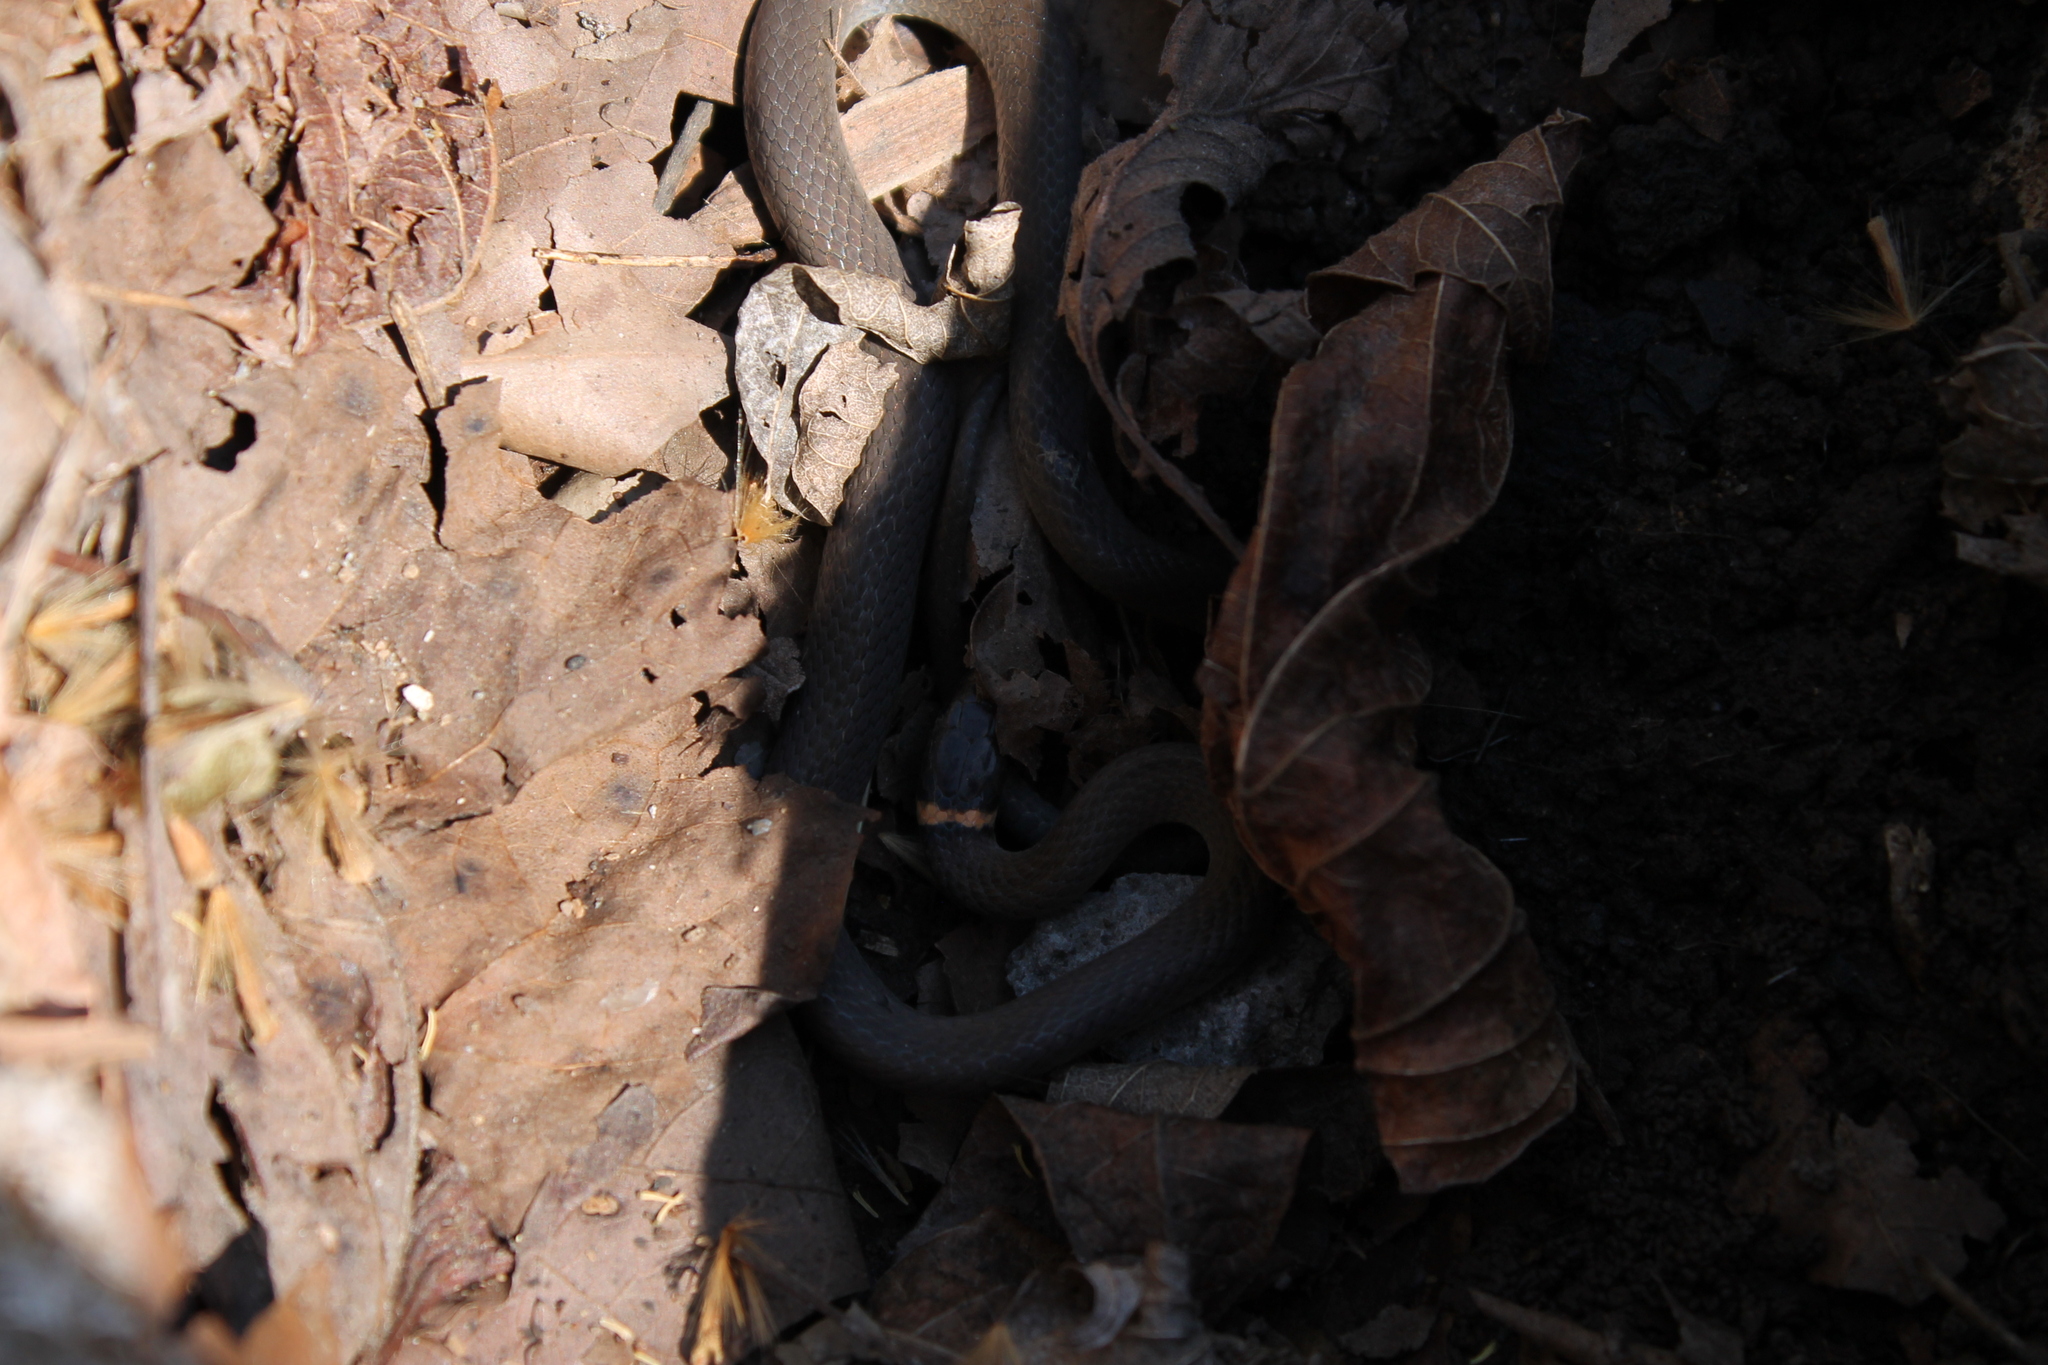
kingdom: Animalia
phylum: Chordata
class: Squamata
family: Colubridae
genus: Diadophis
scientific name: Diadophis punctatus
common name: Ringneck snake
